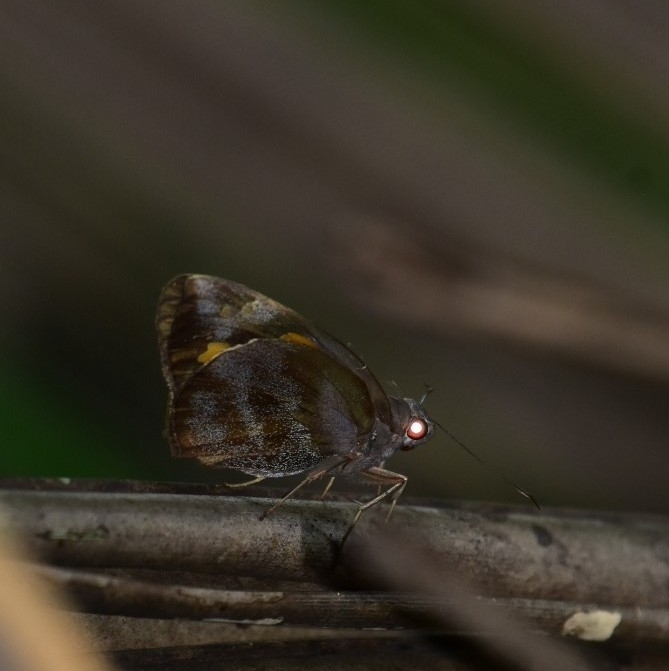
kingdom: Animalia
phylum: Arthropoda
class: Insecta
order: Lepidoptera
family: Hesperiidae
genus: Gangara
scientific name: Gangara thyrsis
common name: Giant redeye
